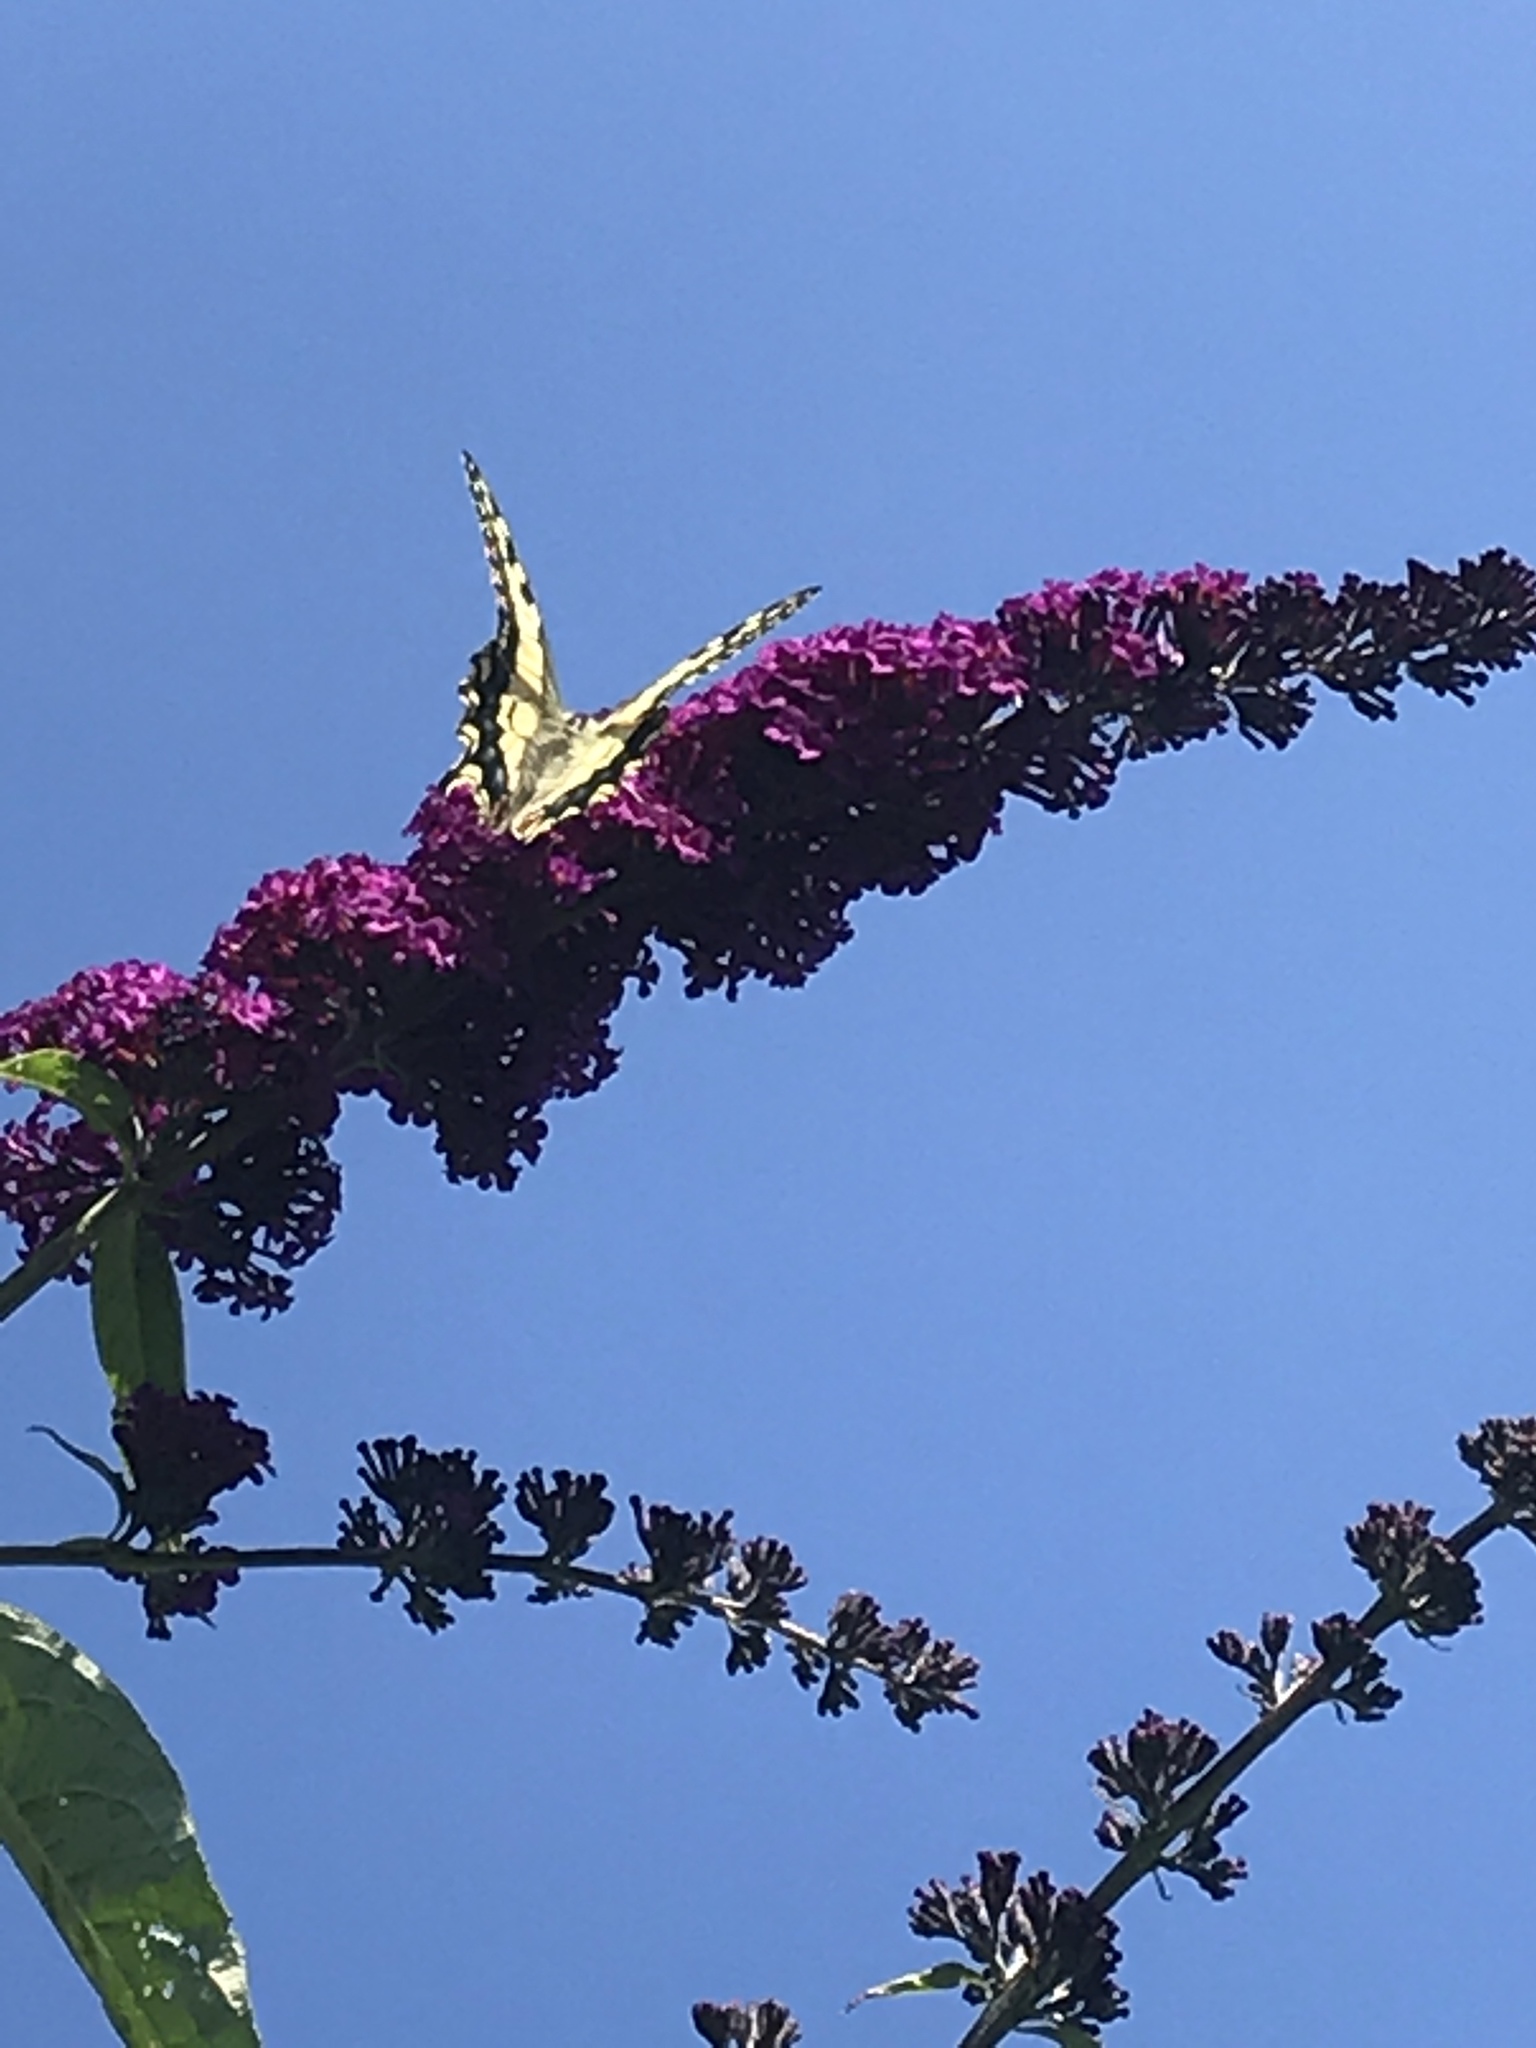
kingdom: Animalia
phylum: Arthropoda
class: Insecta
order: Lepidoptera
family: Papilionidae
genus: Papilio
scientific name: Papilio machaon
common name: Swallowtail
